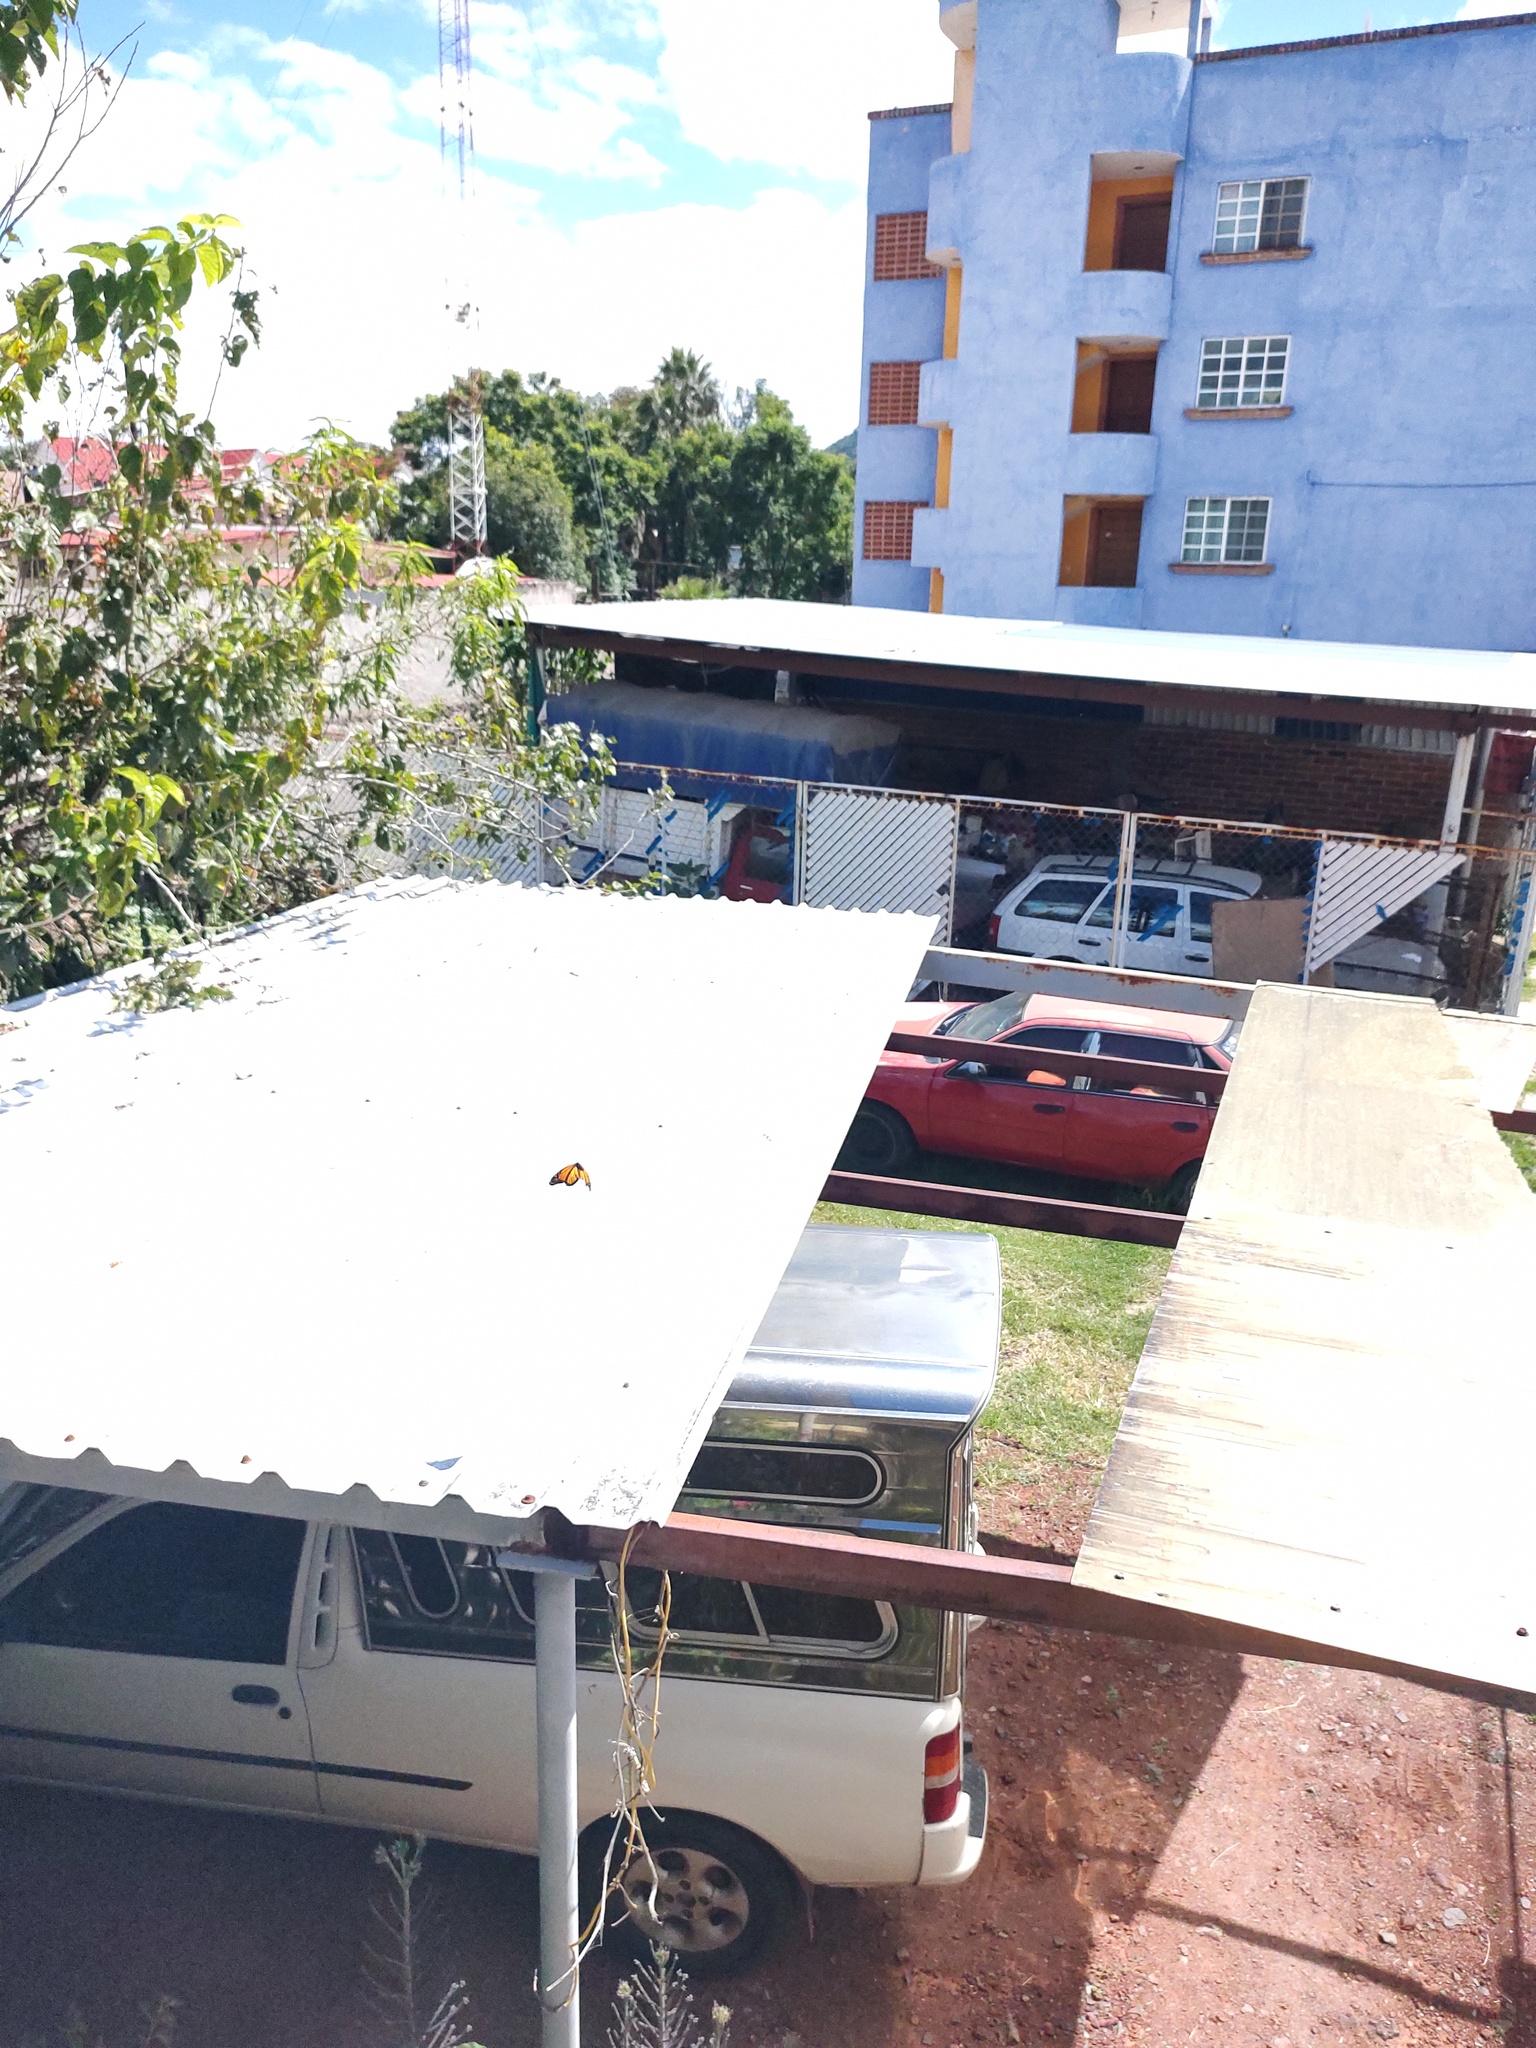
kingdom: Animalia
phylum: Arthropoda
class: Insecta
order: Lepidoptera
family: Nymphalidae
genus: Danaus
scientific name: Danaus plexippus
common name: Monarch
